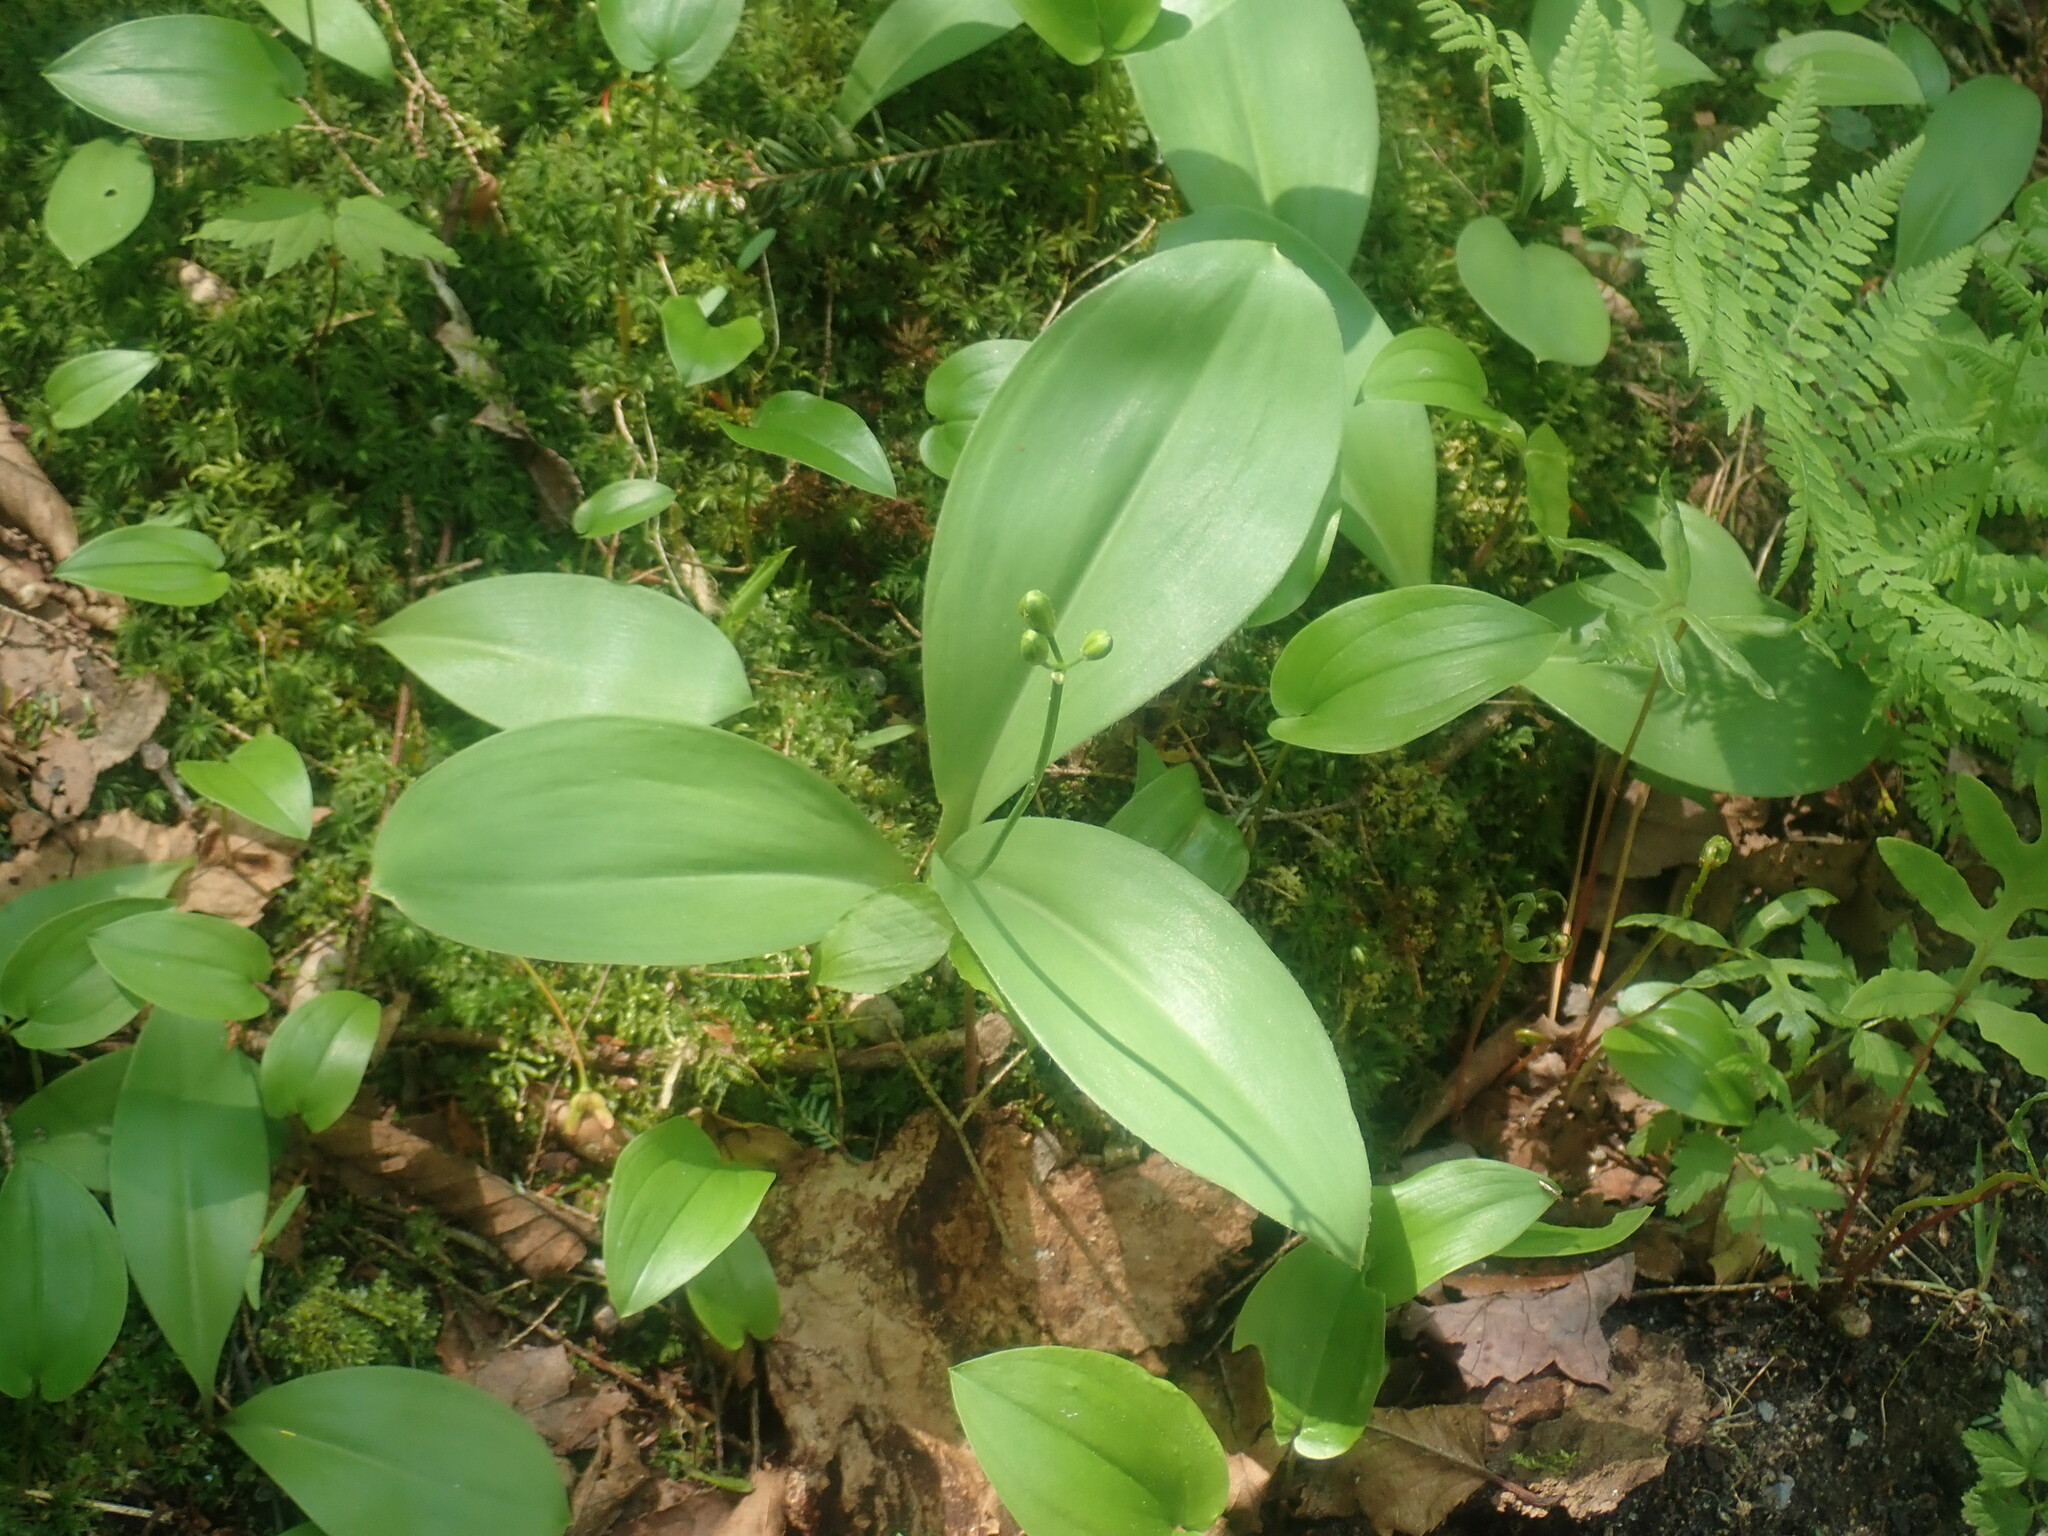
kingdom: Plantae
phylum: Tracheophyta
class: Liliopsida
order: Liliales
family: Liliaceae
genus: Clintonia
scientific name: Clintonia borealis
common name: Yellow clintonia
